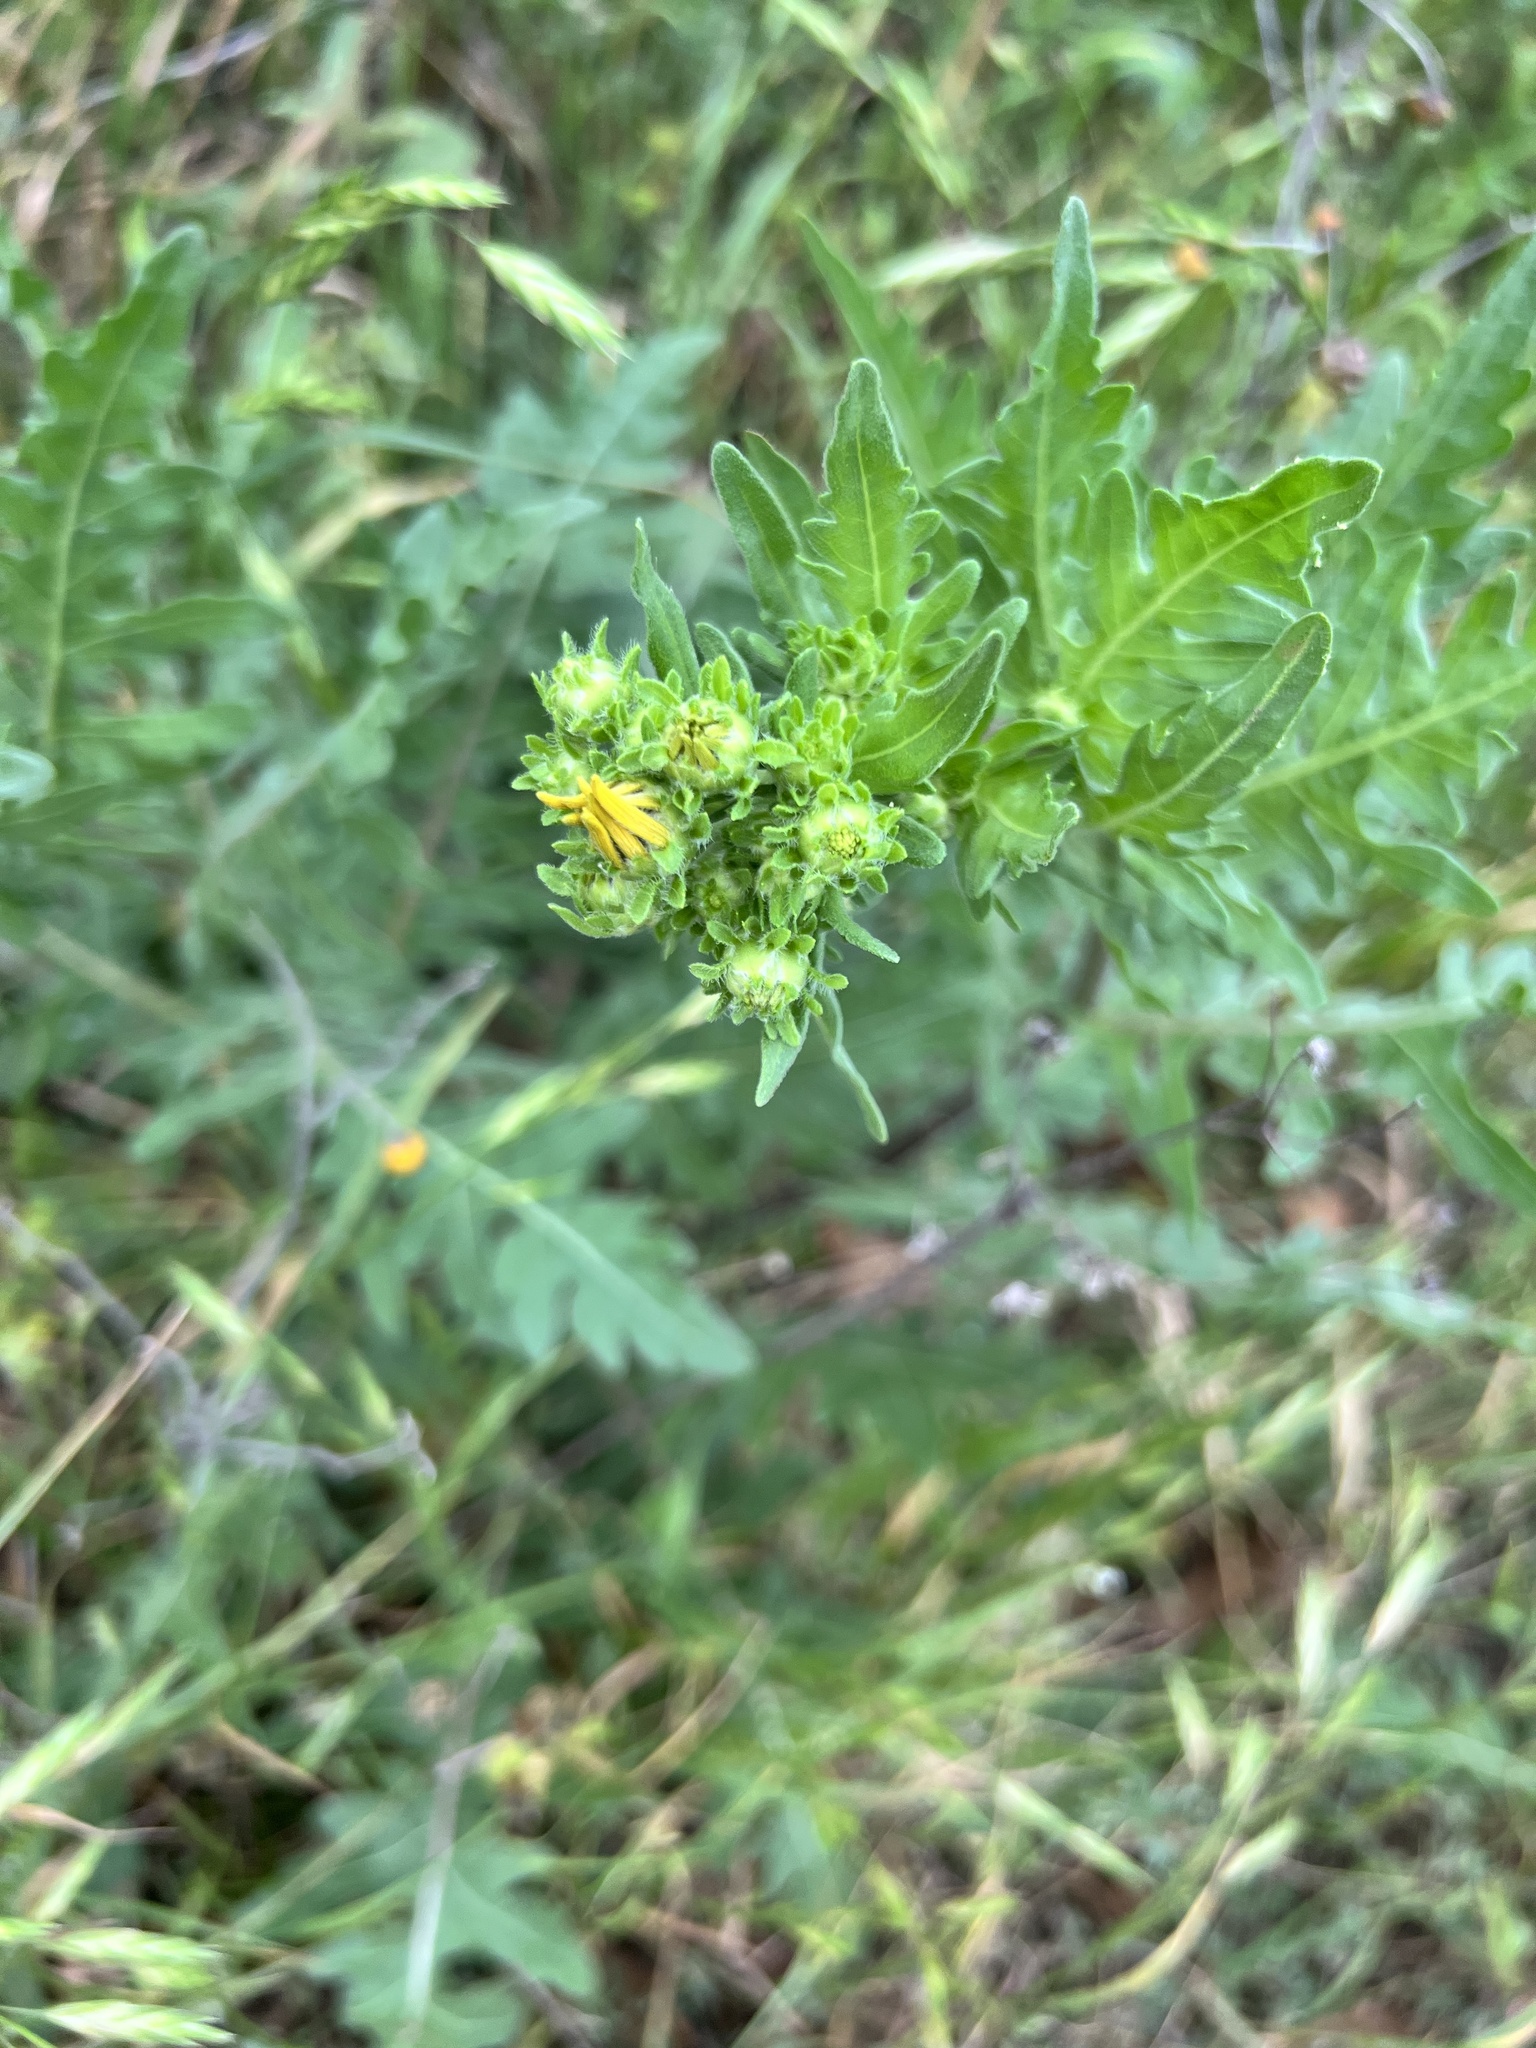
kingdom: Plantae
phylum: Tracheophyta
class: Magnoliopsida
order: Asterales
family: Asteraceae
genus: Engelmannia
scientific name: Engelmannia peristenia
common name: Engelmann's daisy
